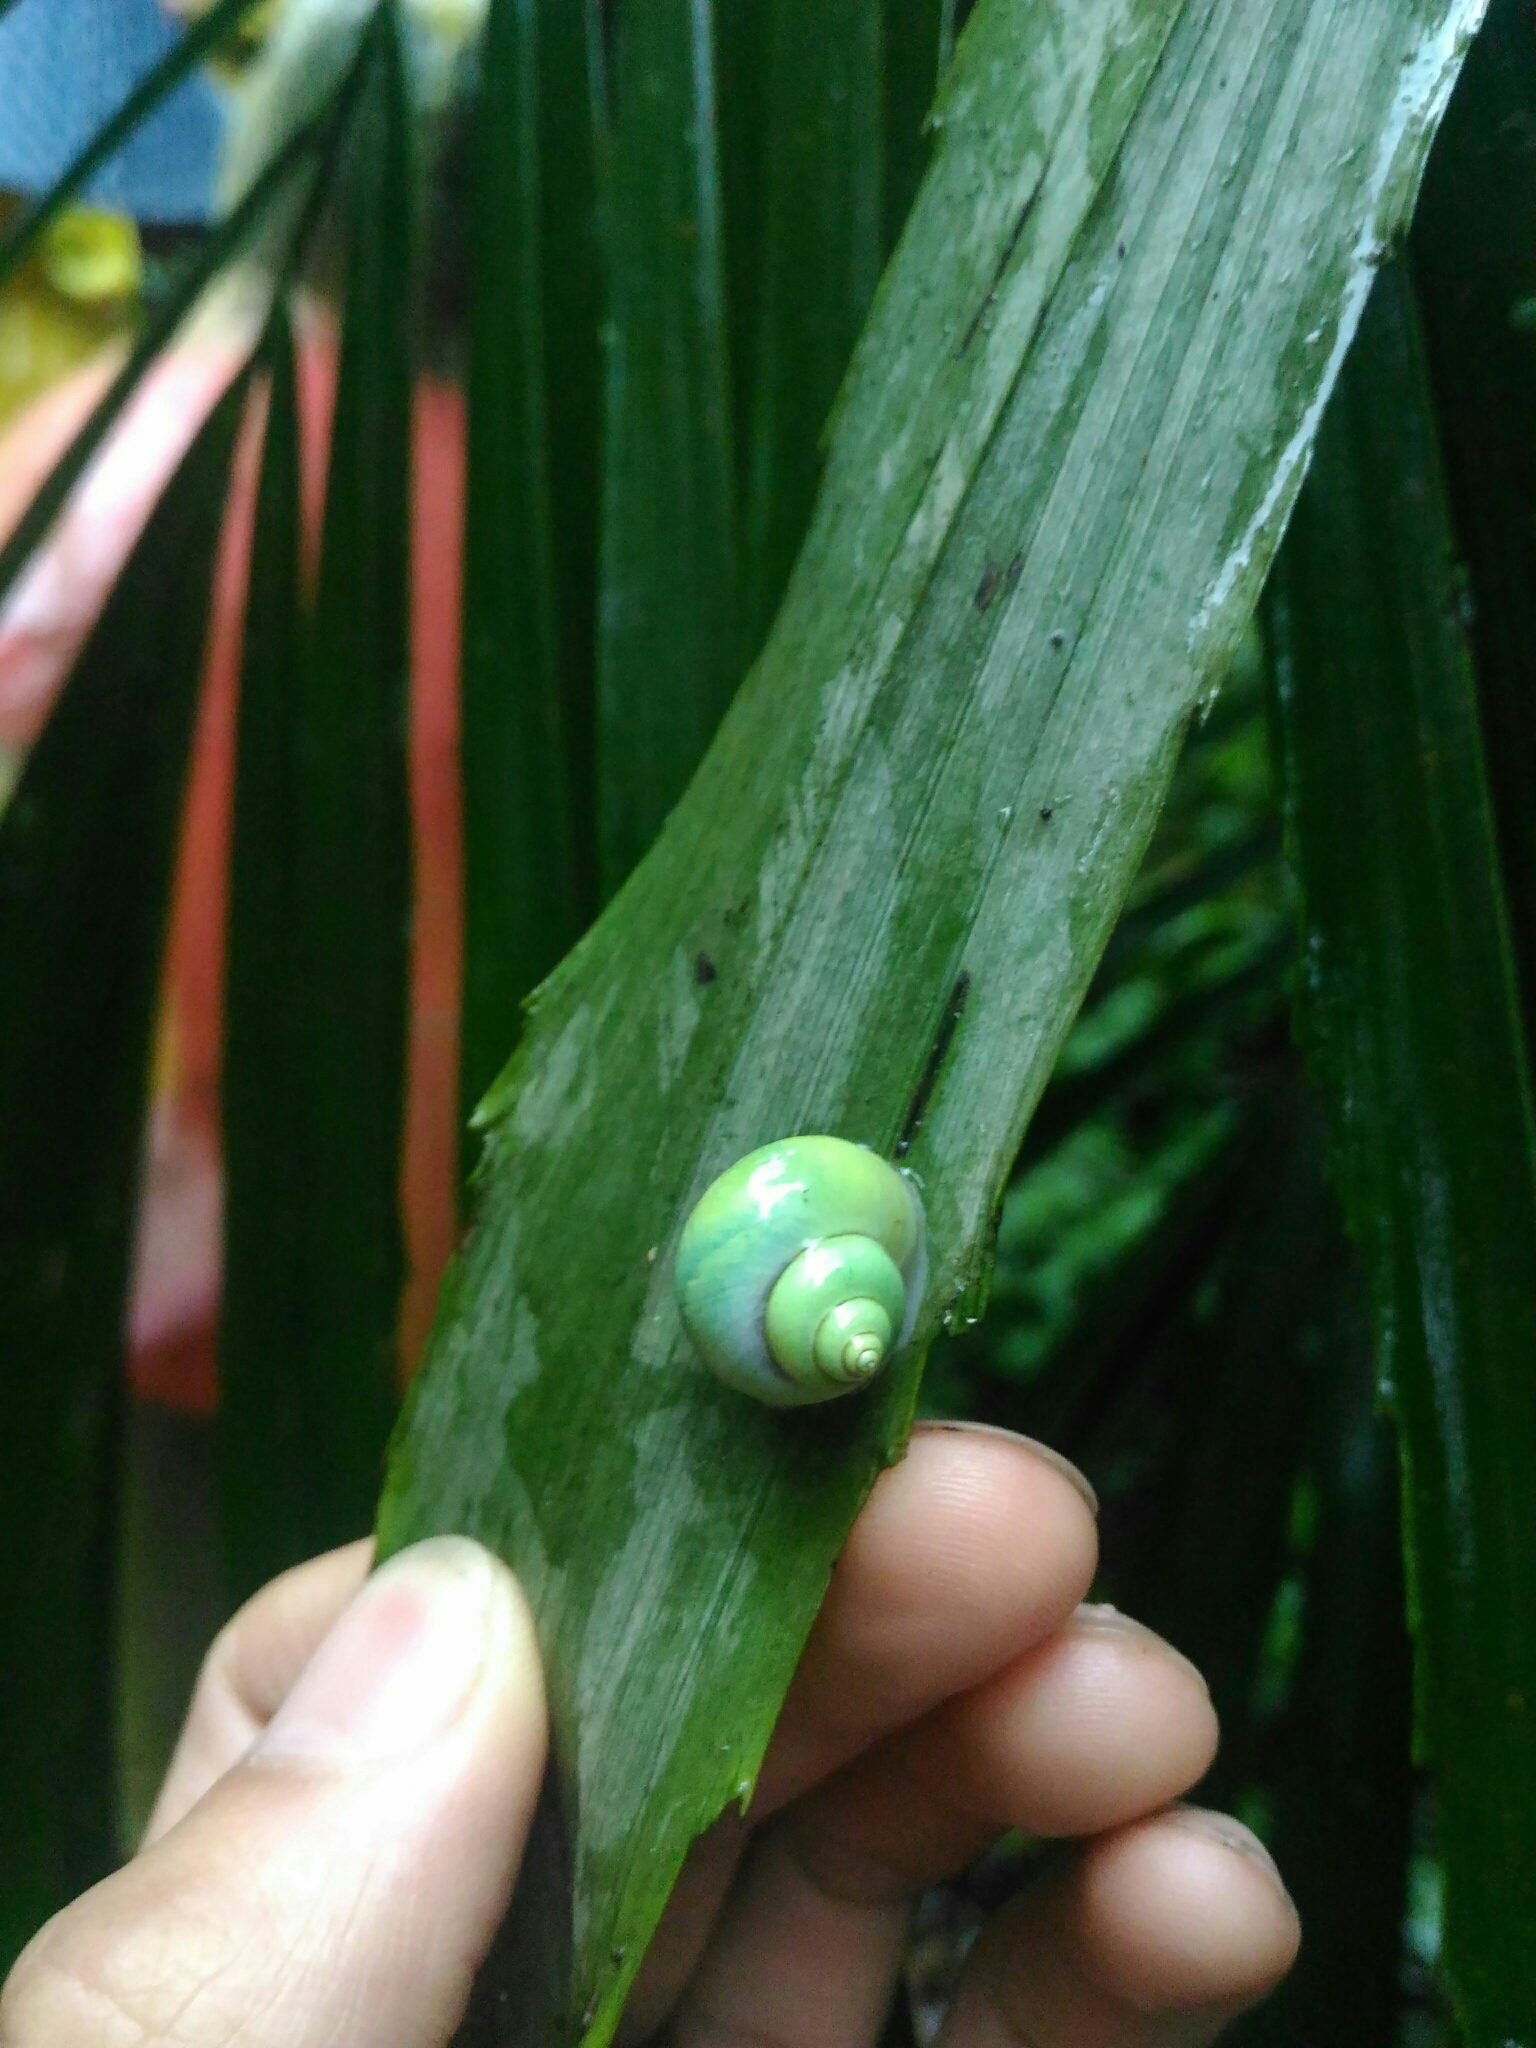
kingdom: Animalia
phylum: Mollusca
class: Gastropoda
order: Architaenioglossa
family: Cyclophoridae
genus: Leptopoma
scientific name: Leptopoma nitidum
